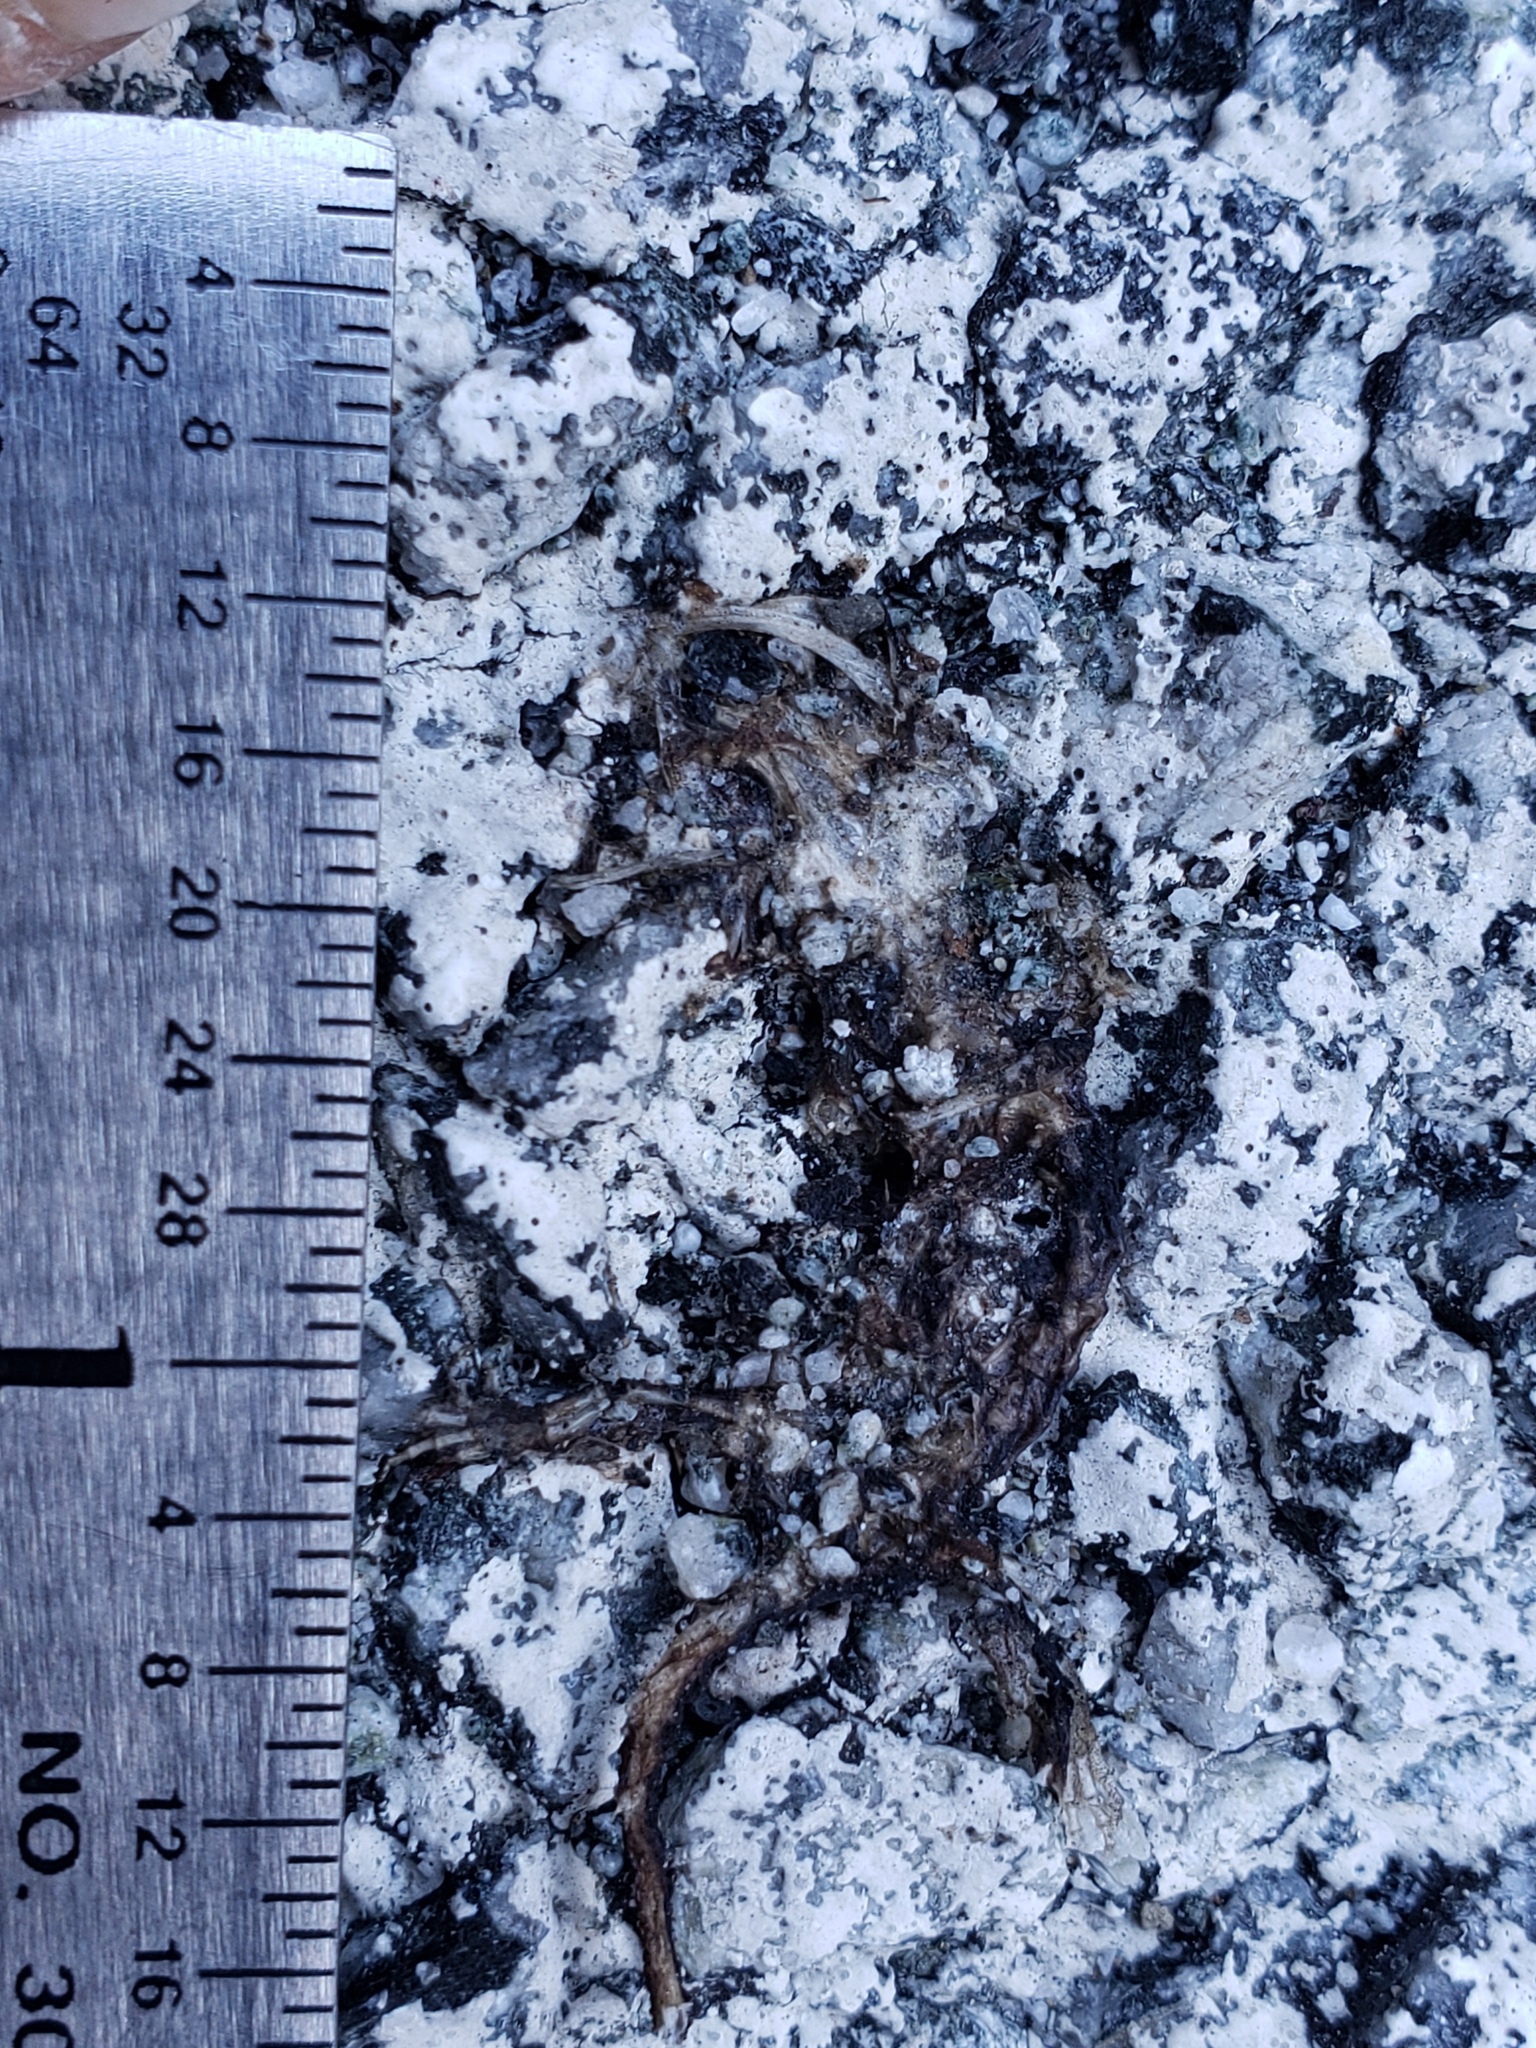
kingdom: Animalia
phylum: Chordata
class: Amphibia
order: Caudata
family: Salamandridae
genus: Taricha
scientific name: Taricha
